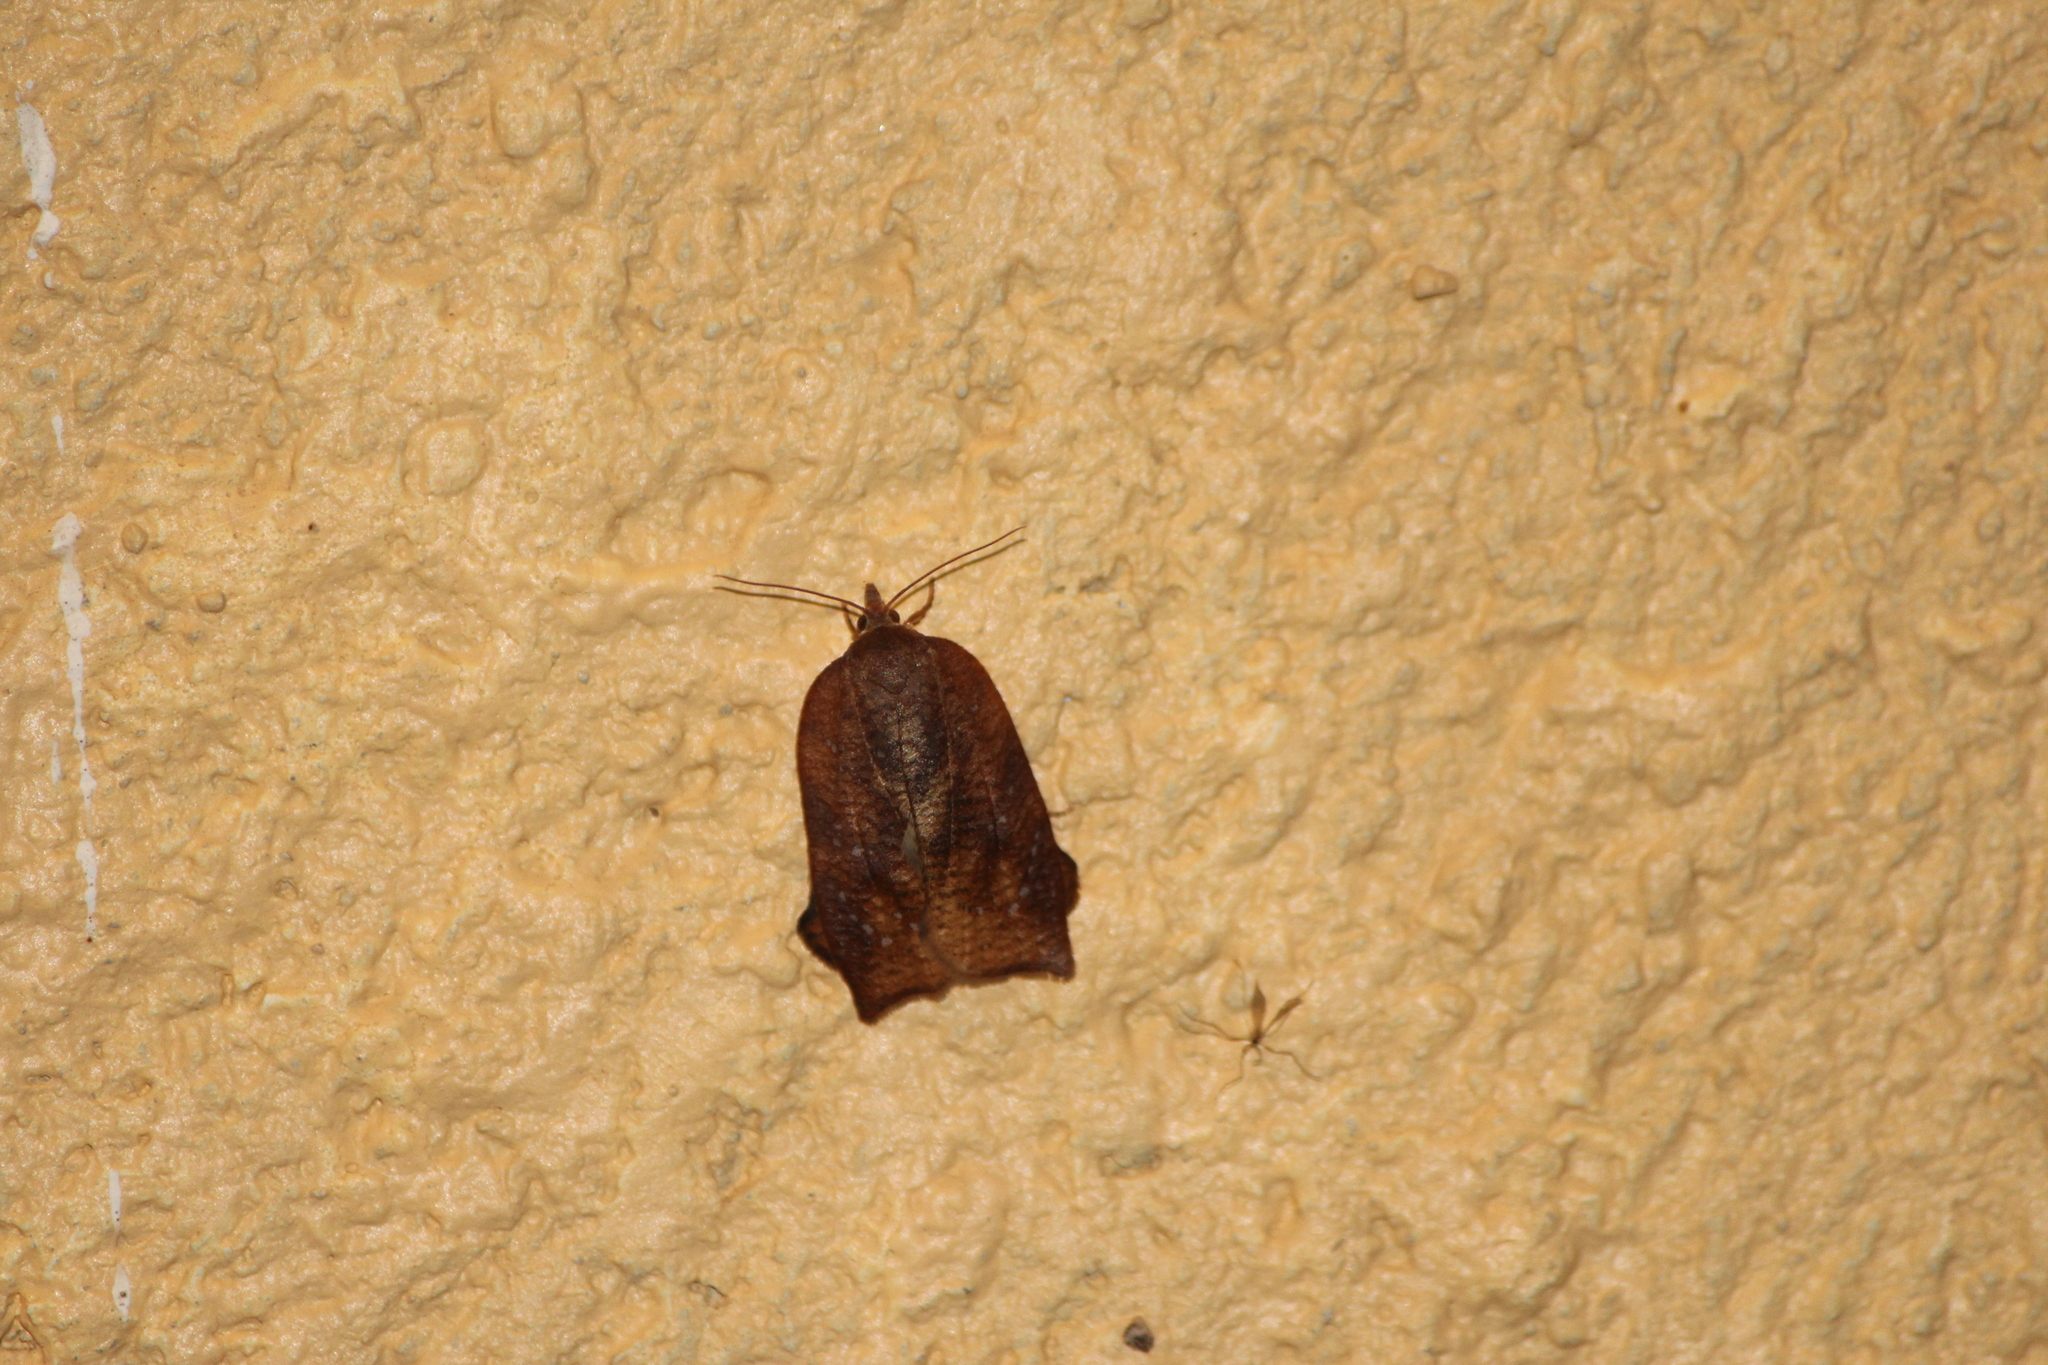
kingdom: Animalia
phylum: Arthropoda
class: Insecta
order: Lepidoptera
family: Tortricidae
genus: Amorbia
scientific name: Amorbia emigratella
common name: Mexican leafroller
